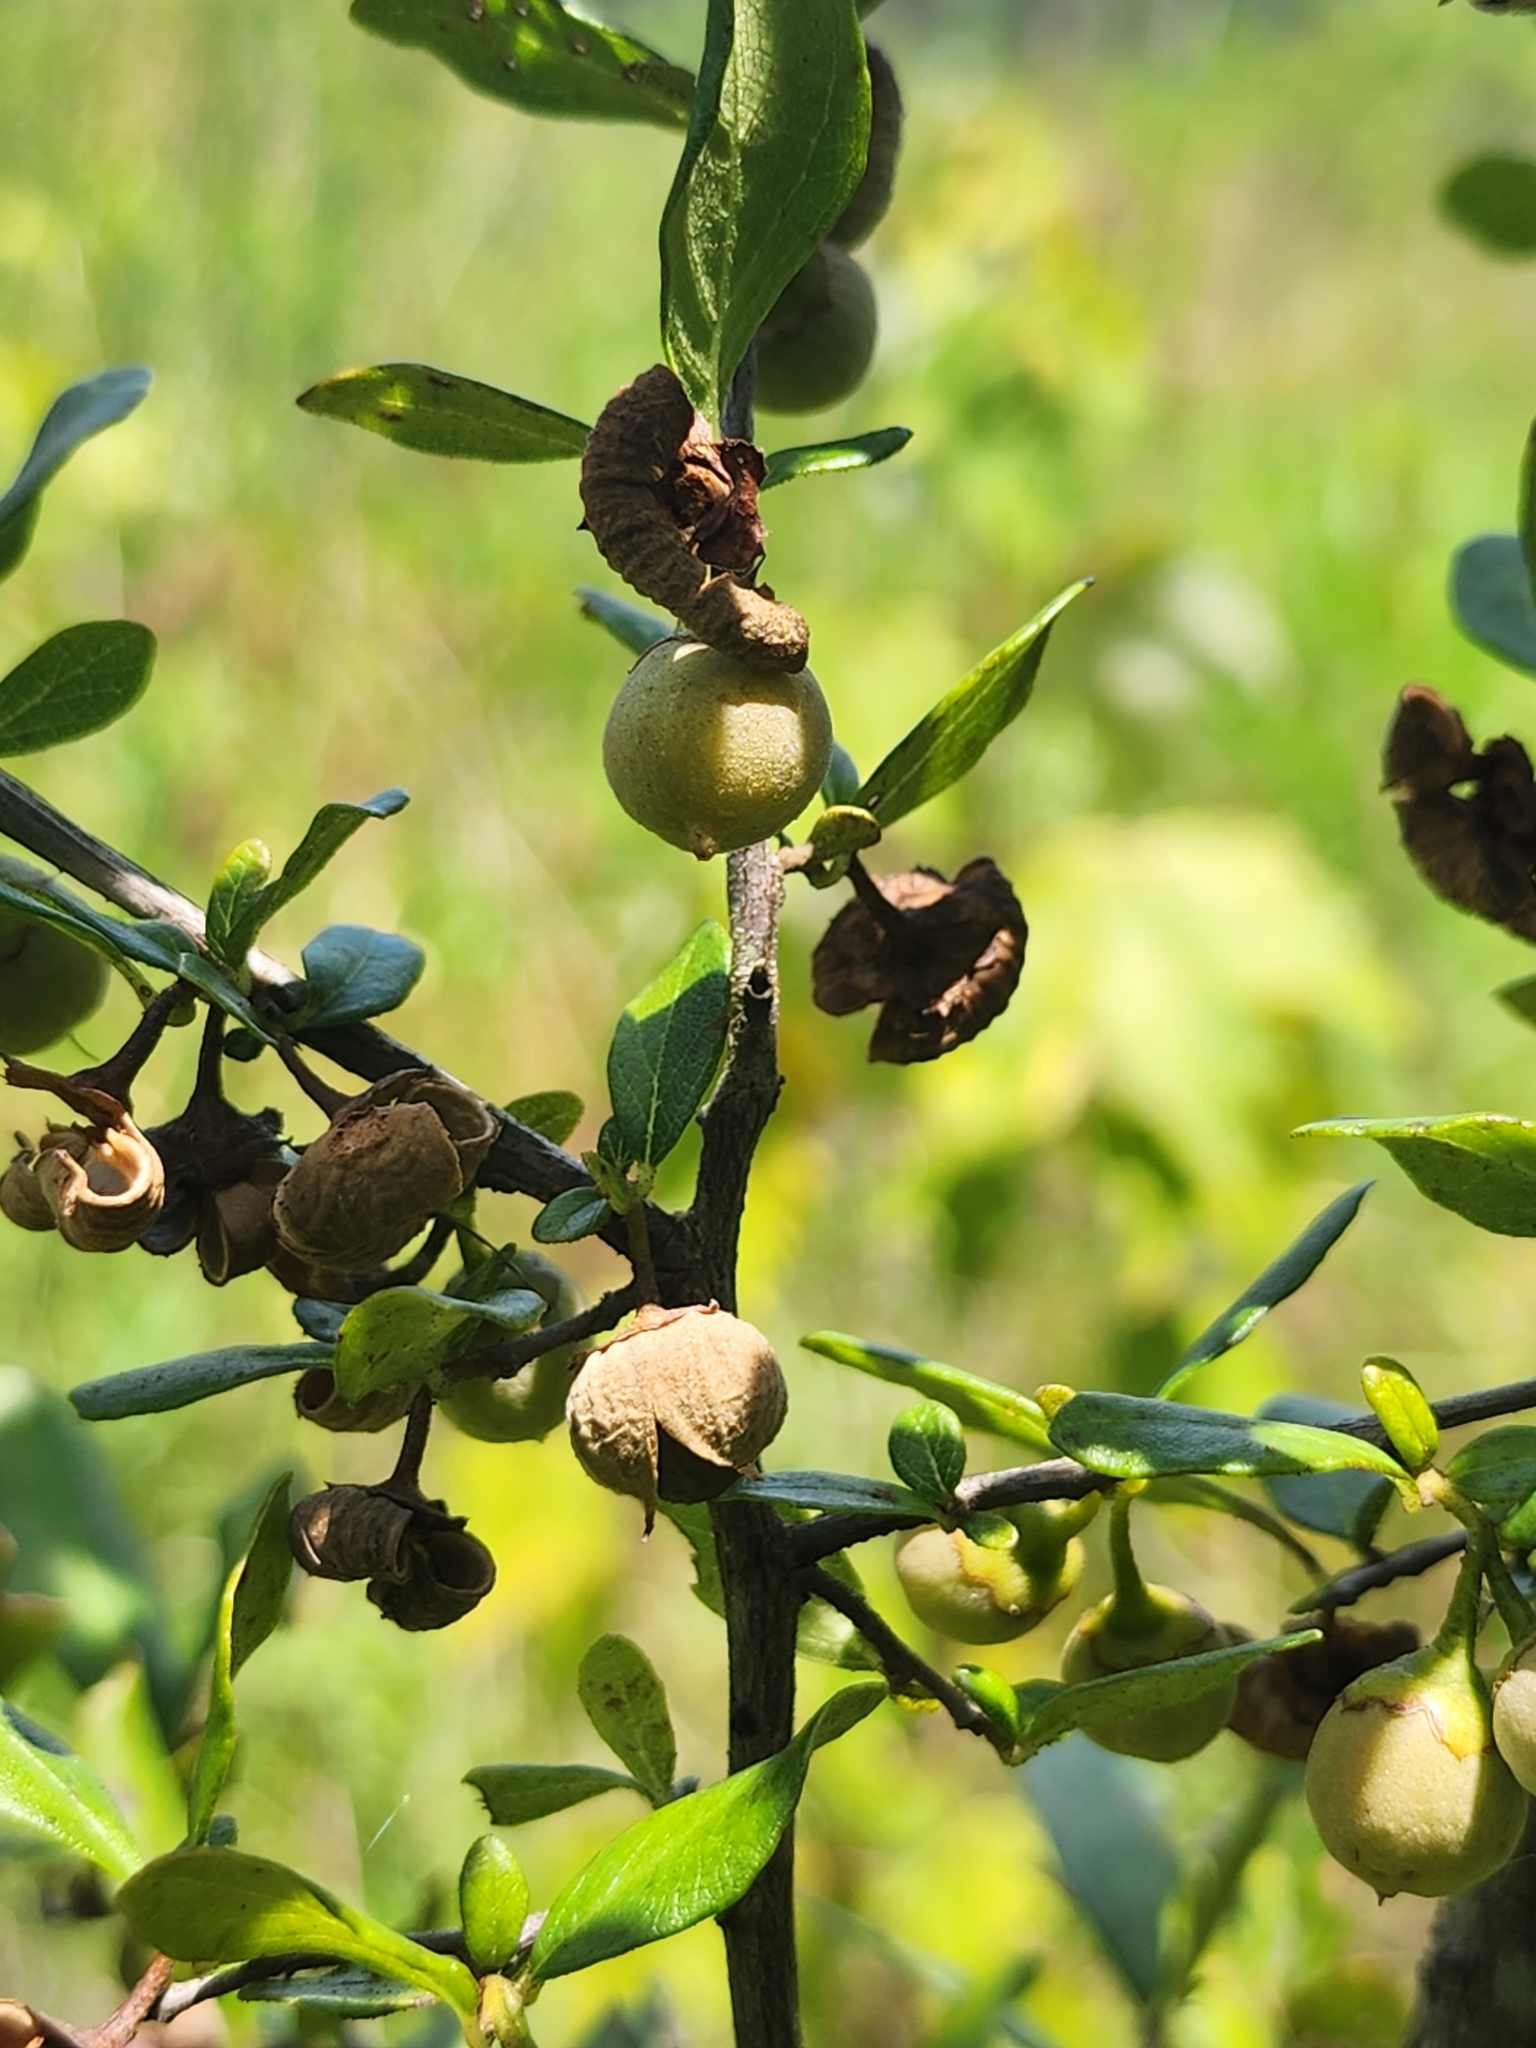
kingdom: Plantae
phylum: Tracheophyta
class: Magnoliopsida
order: Ericales
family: Styracaceae
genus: Styrax
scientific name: Styrax americanus
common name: American snowbell
